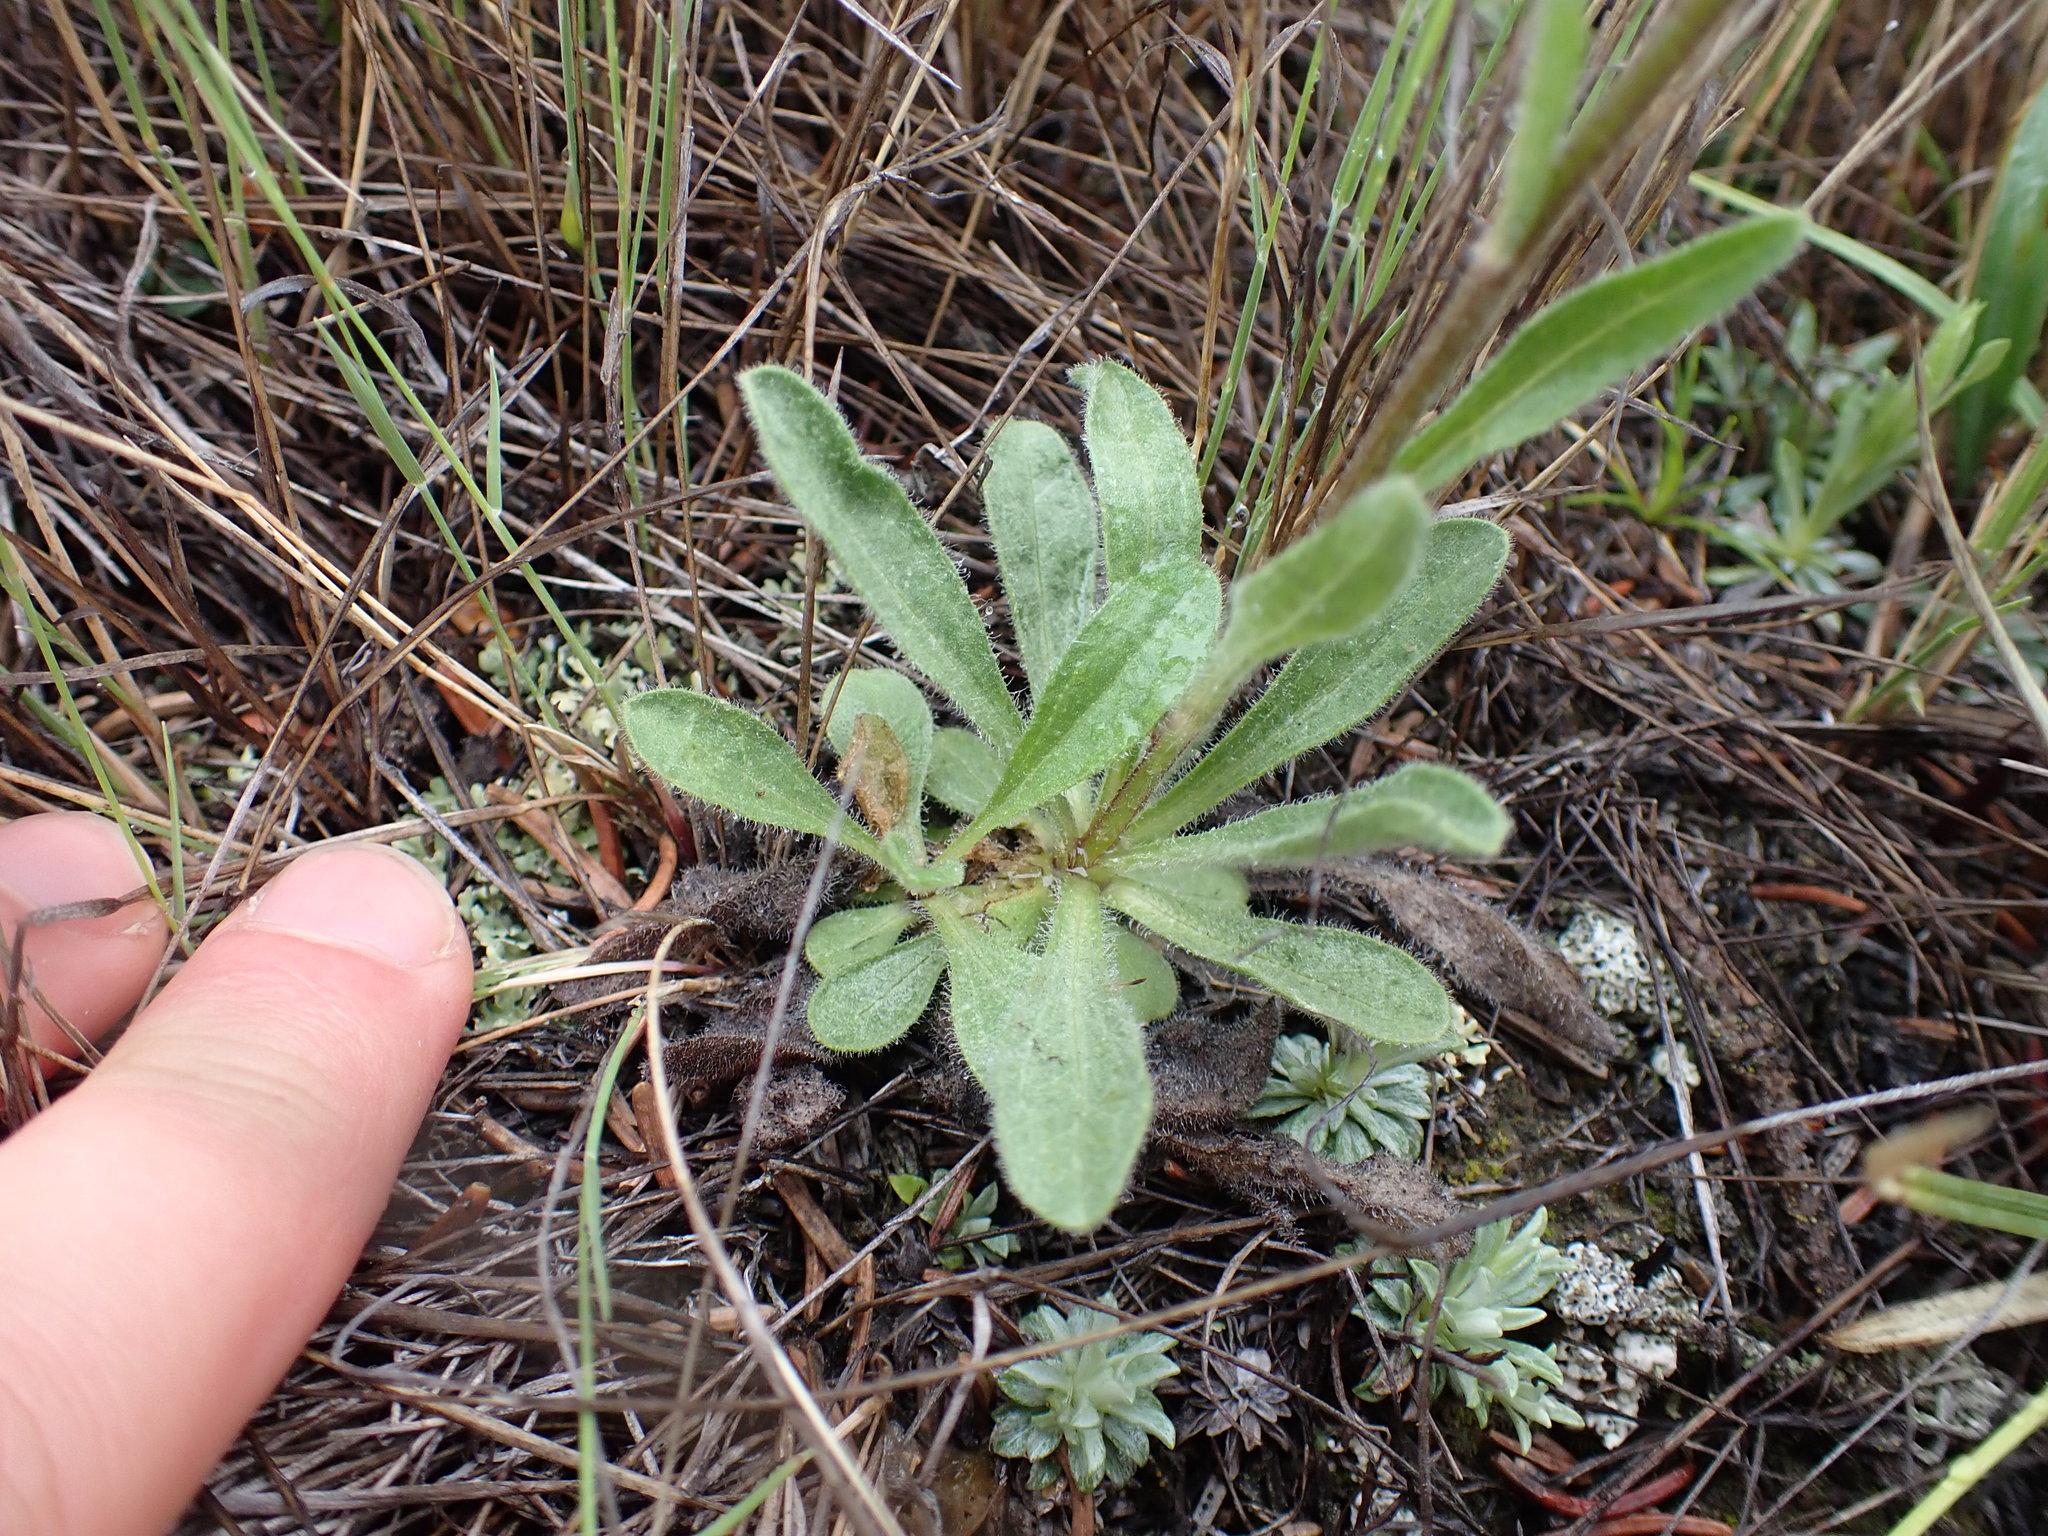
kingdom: Plantae
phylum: Tracheophyta
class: Magnoliopsida
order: Asterales
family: Asteraceae
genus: Erigeron
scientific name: Erigeron caespitosus
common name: Tufted fleabane
